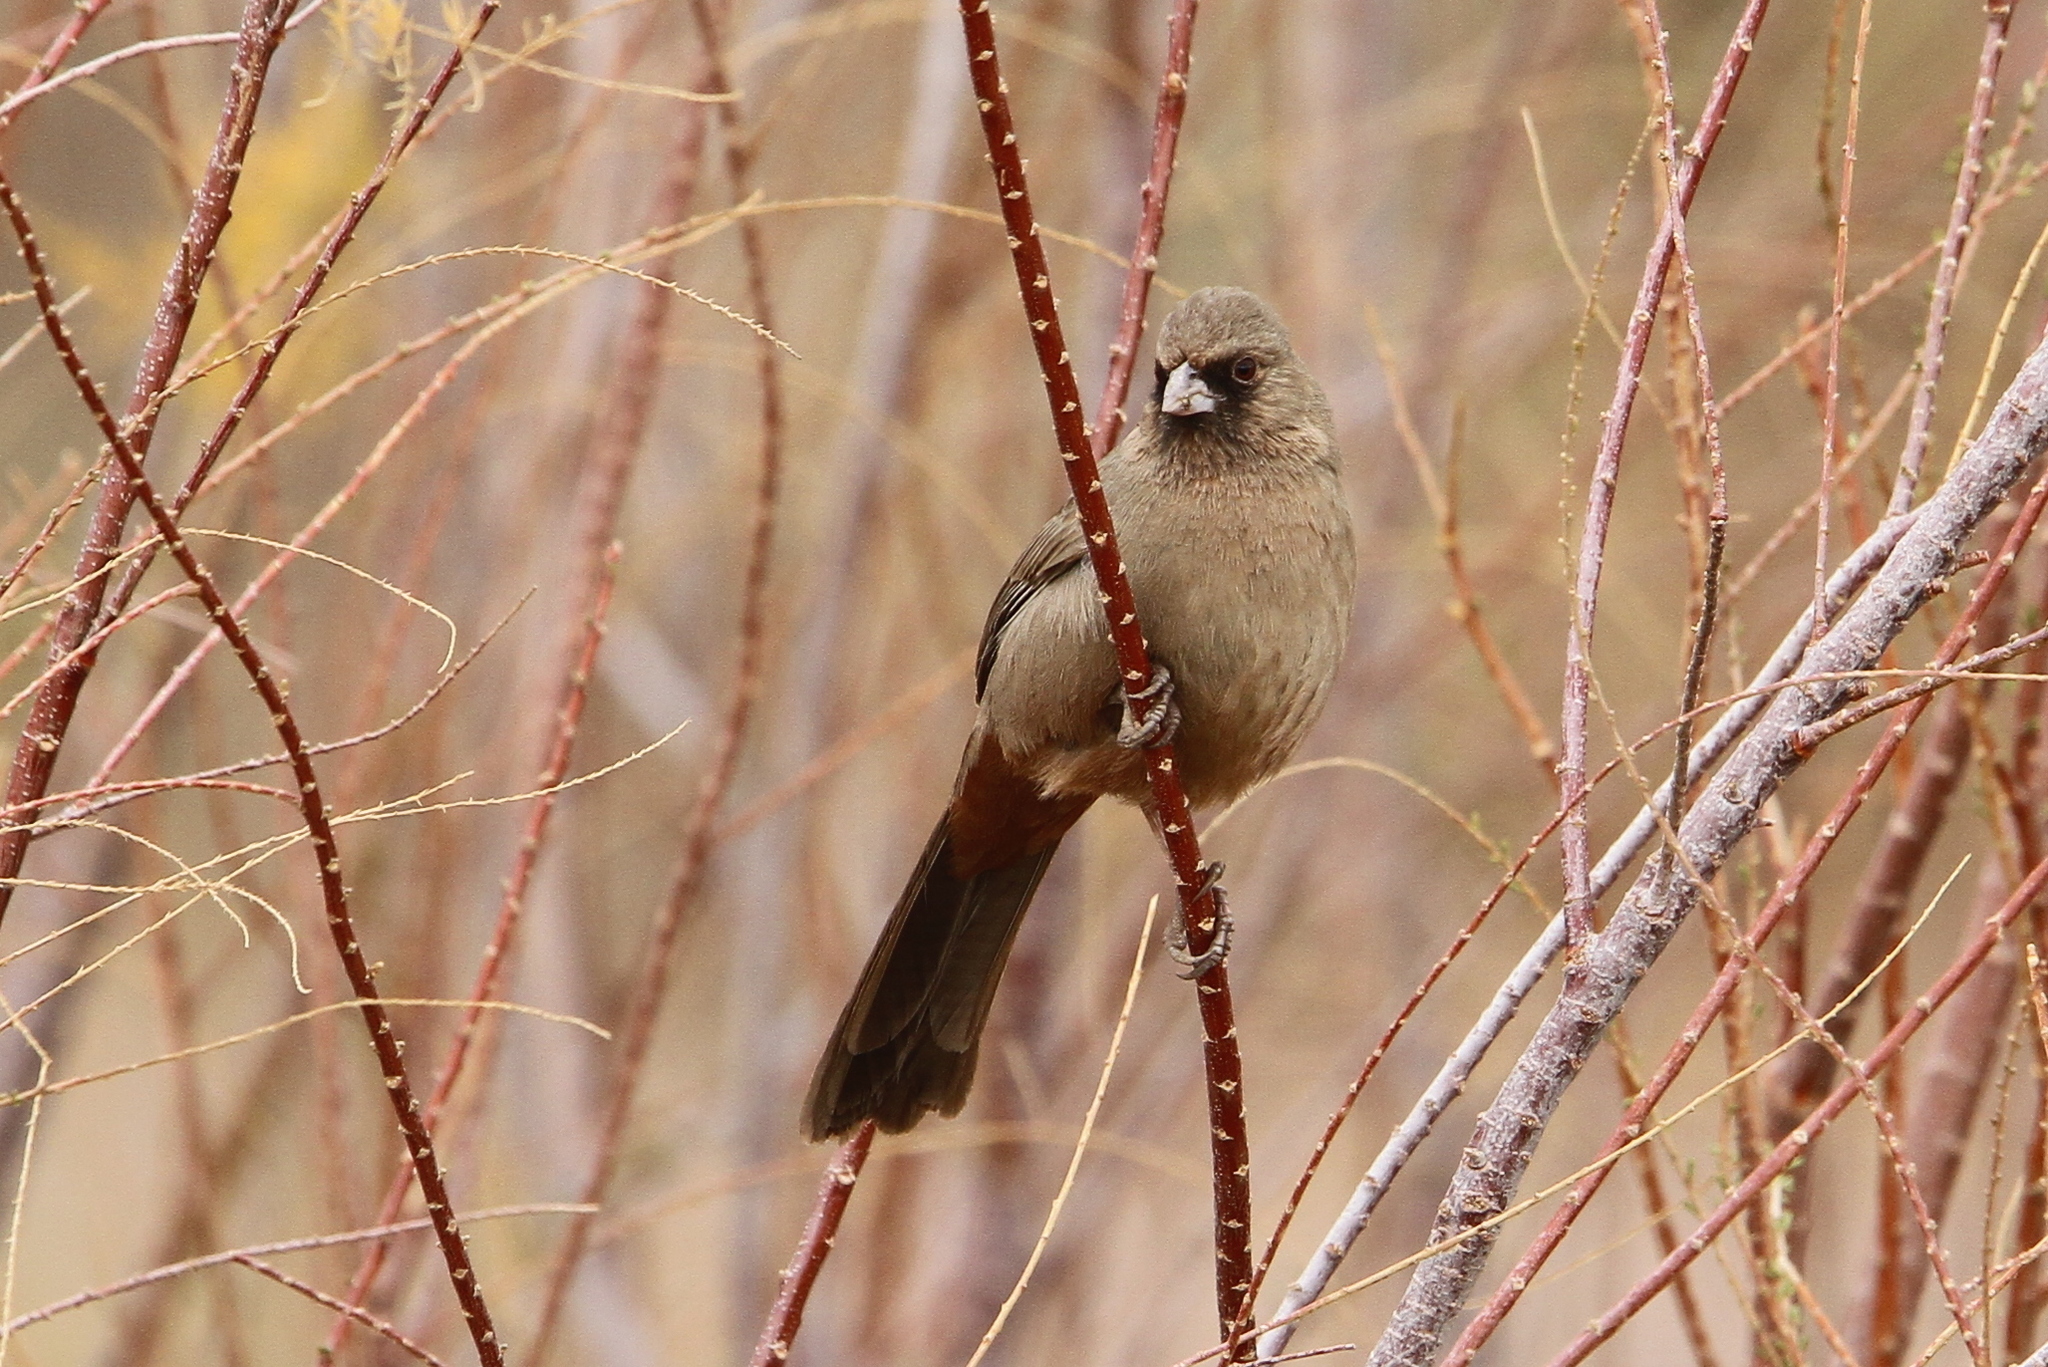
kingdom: Animalia
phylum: Chordata
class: Aves
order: Passeriformes
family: Passerellidae
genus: Melozone
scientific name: Melozone aberti
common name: Abert's towhee
